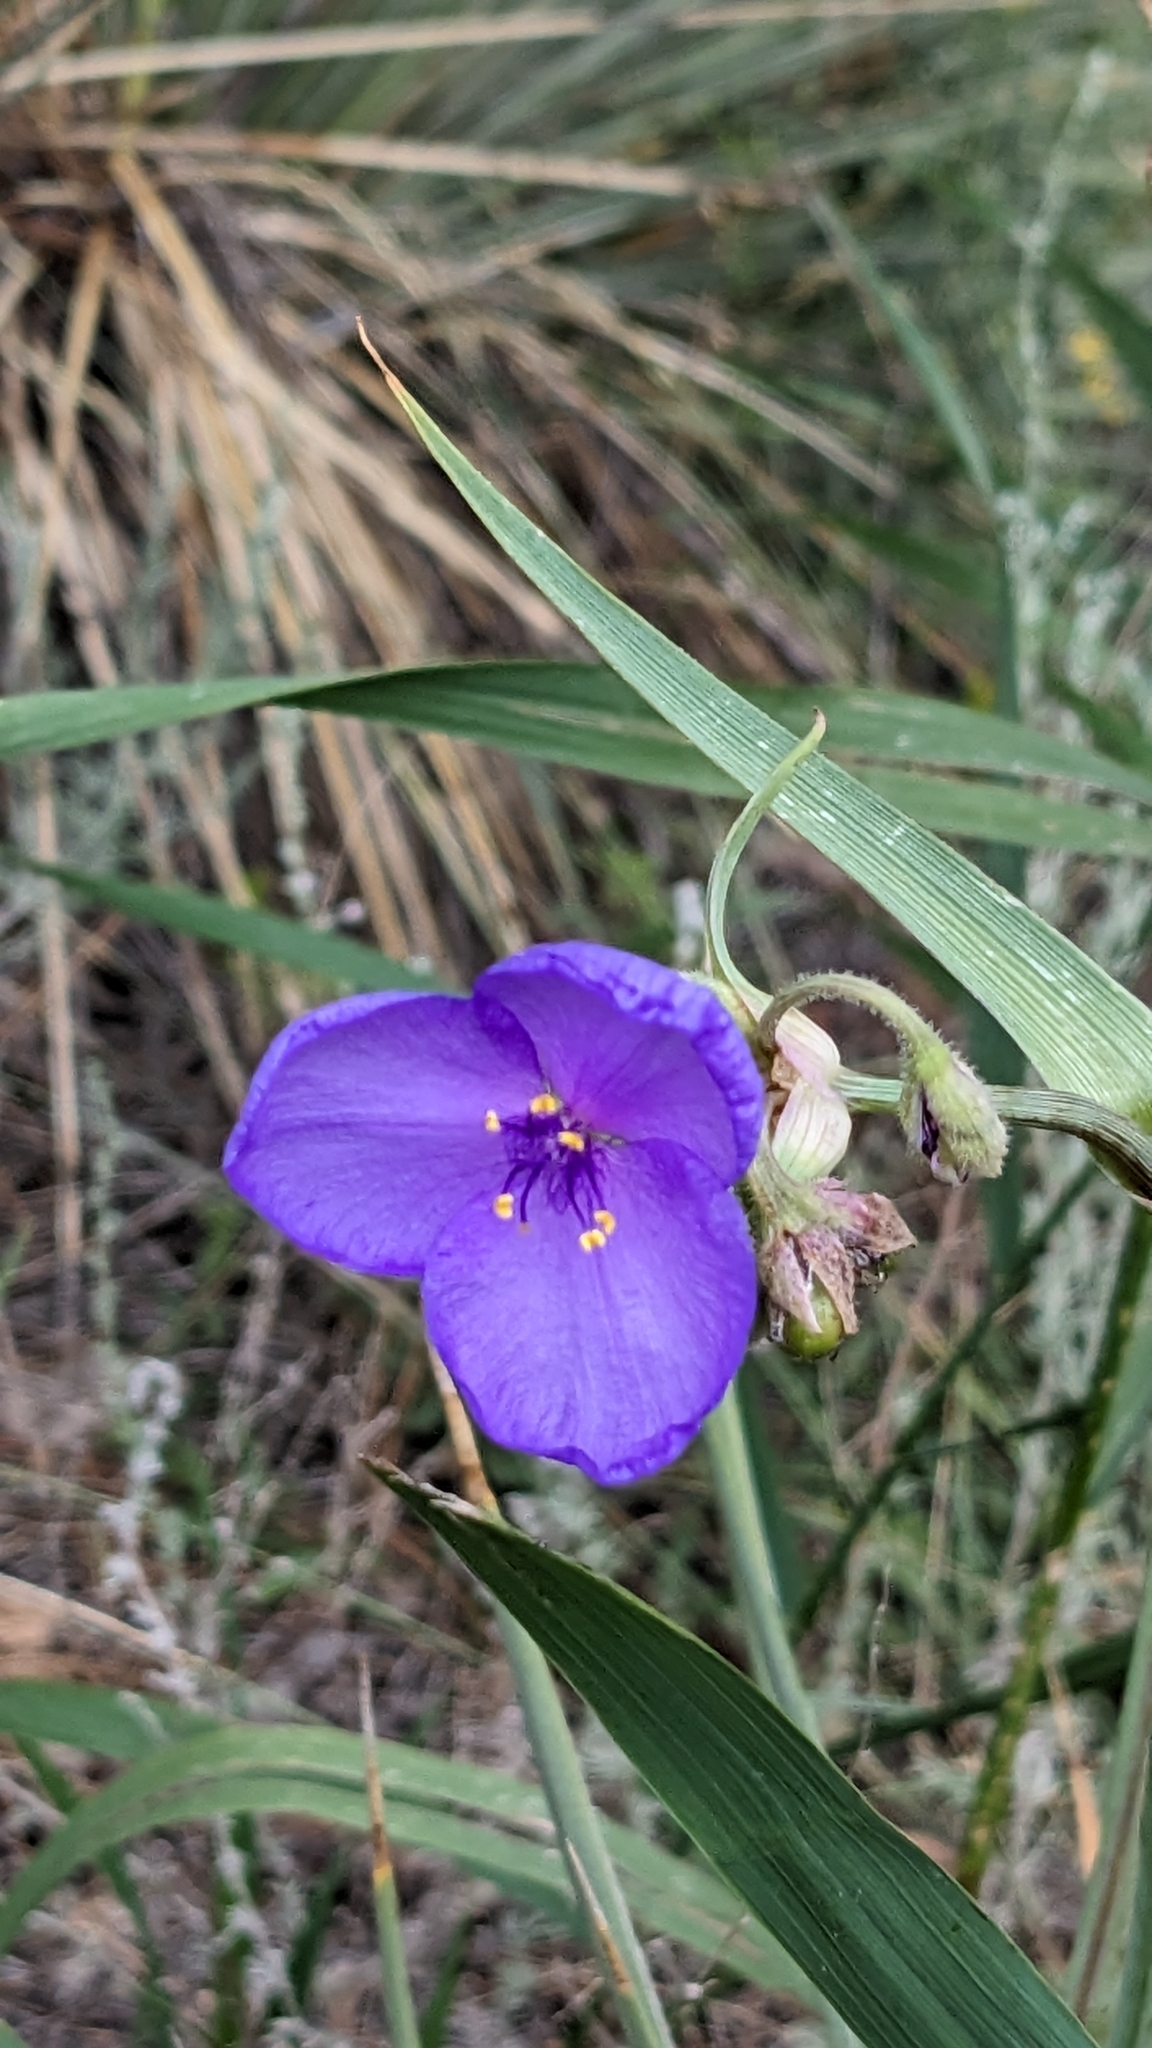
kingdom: Plantae
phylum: Tracheophyta
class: Liliopsida
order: Commelinales
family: Commelinaceae
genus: Tradescantia
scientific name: Tradescantia occidentalis
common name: Prairie spiderwort
